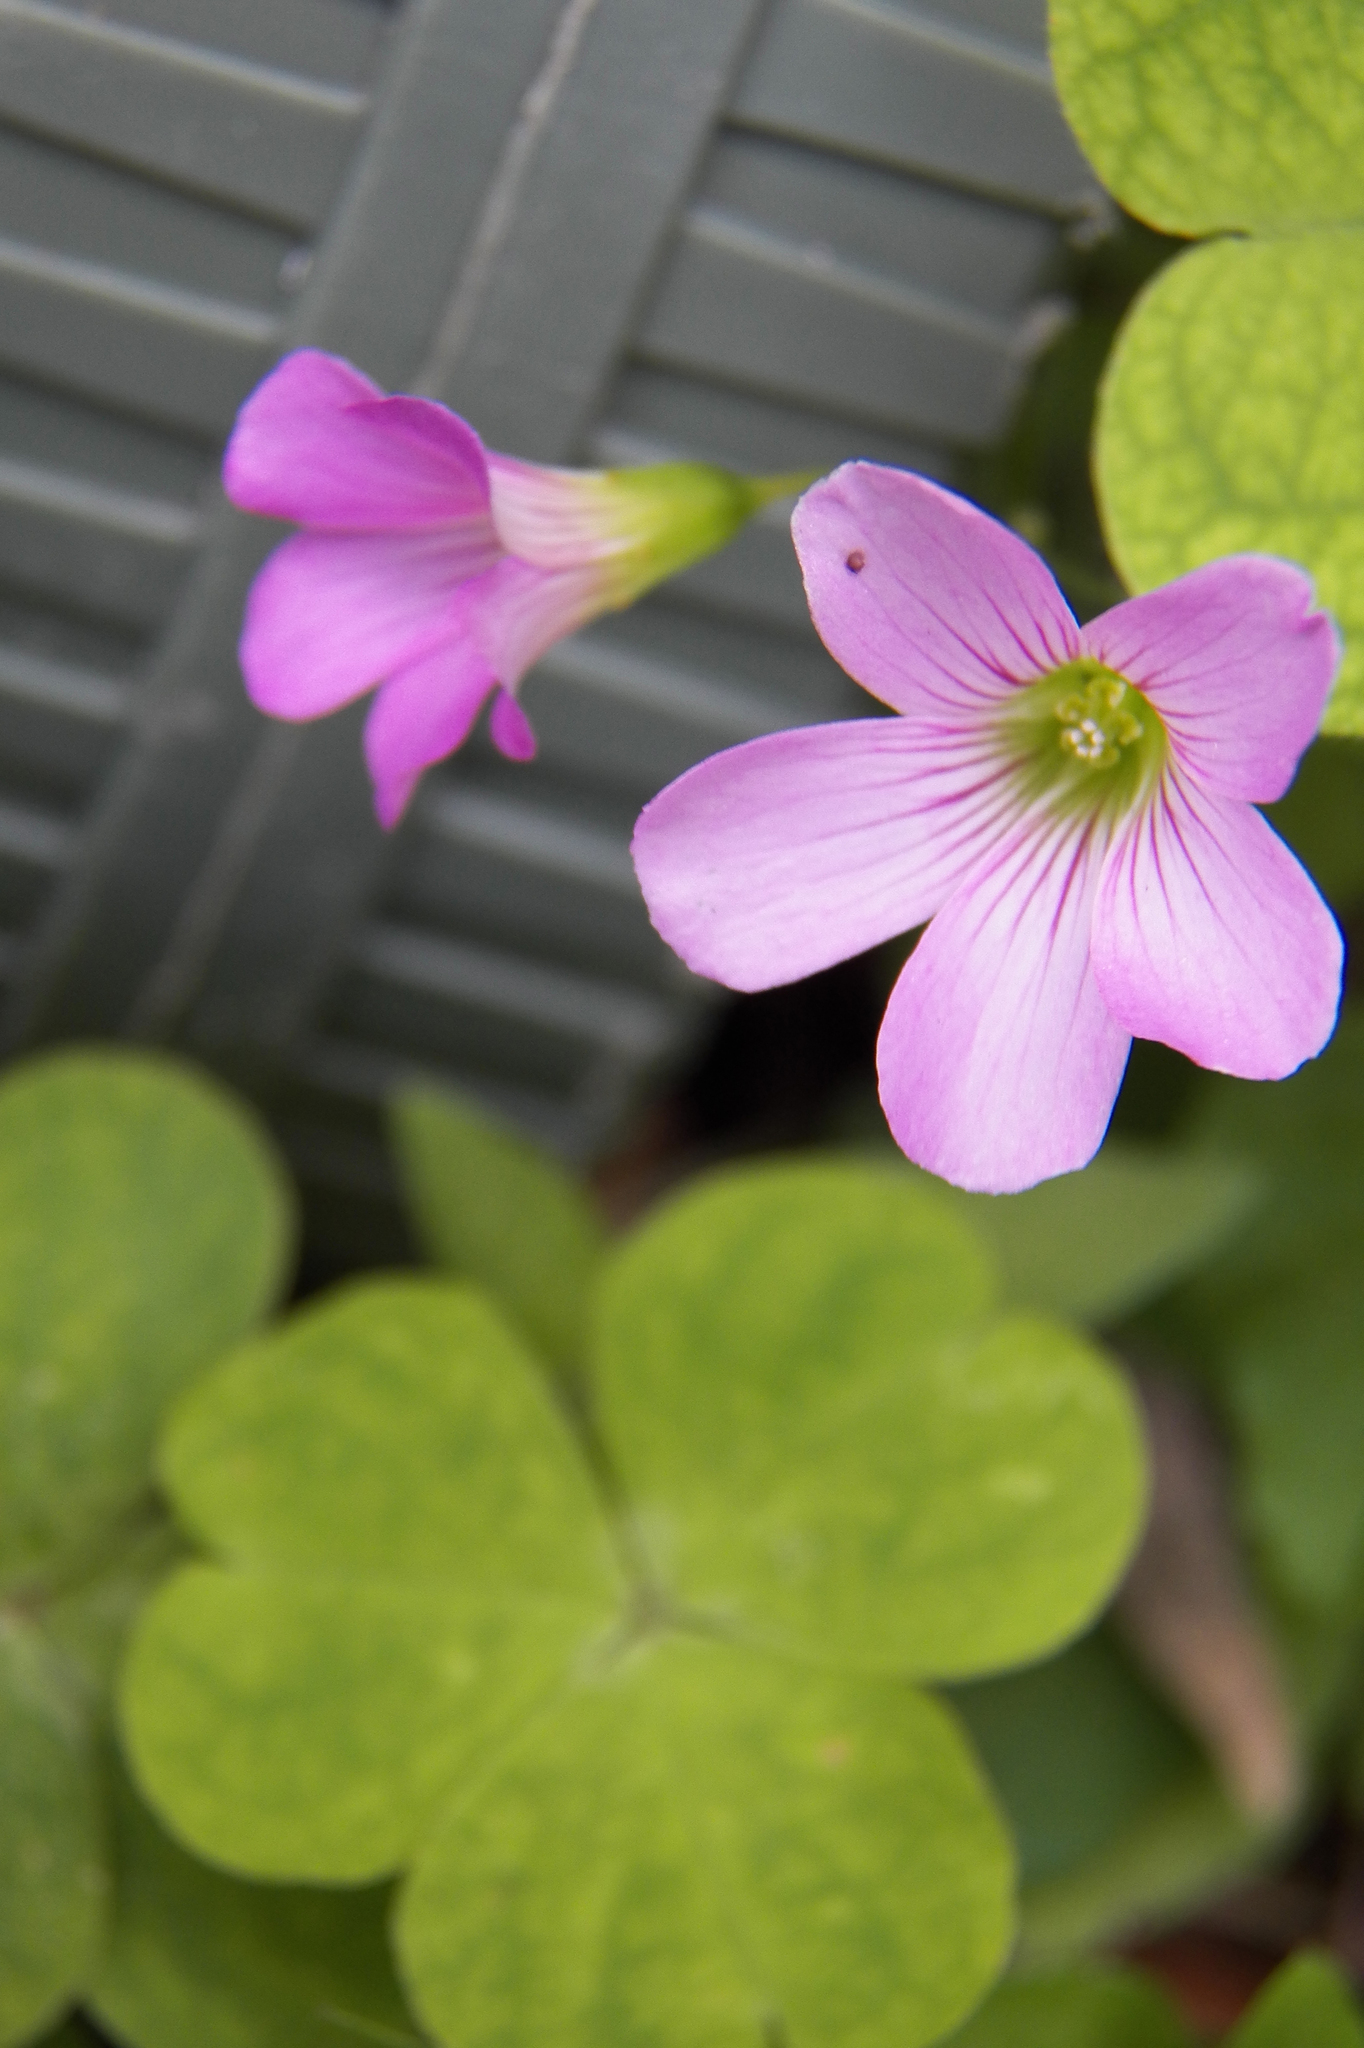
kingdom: Plantae
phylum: Tracheophyta
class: Magnoliopsida
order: Oxalidales
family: Oxalidaceae
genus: Oxalis
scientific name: Oxalis debilis
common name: Large-flowered pink-sorrel
